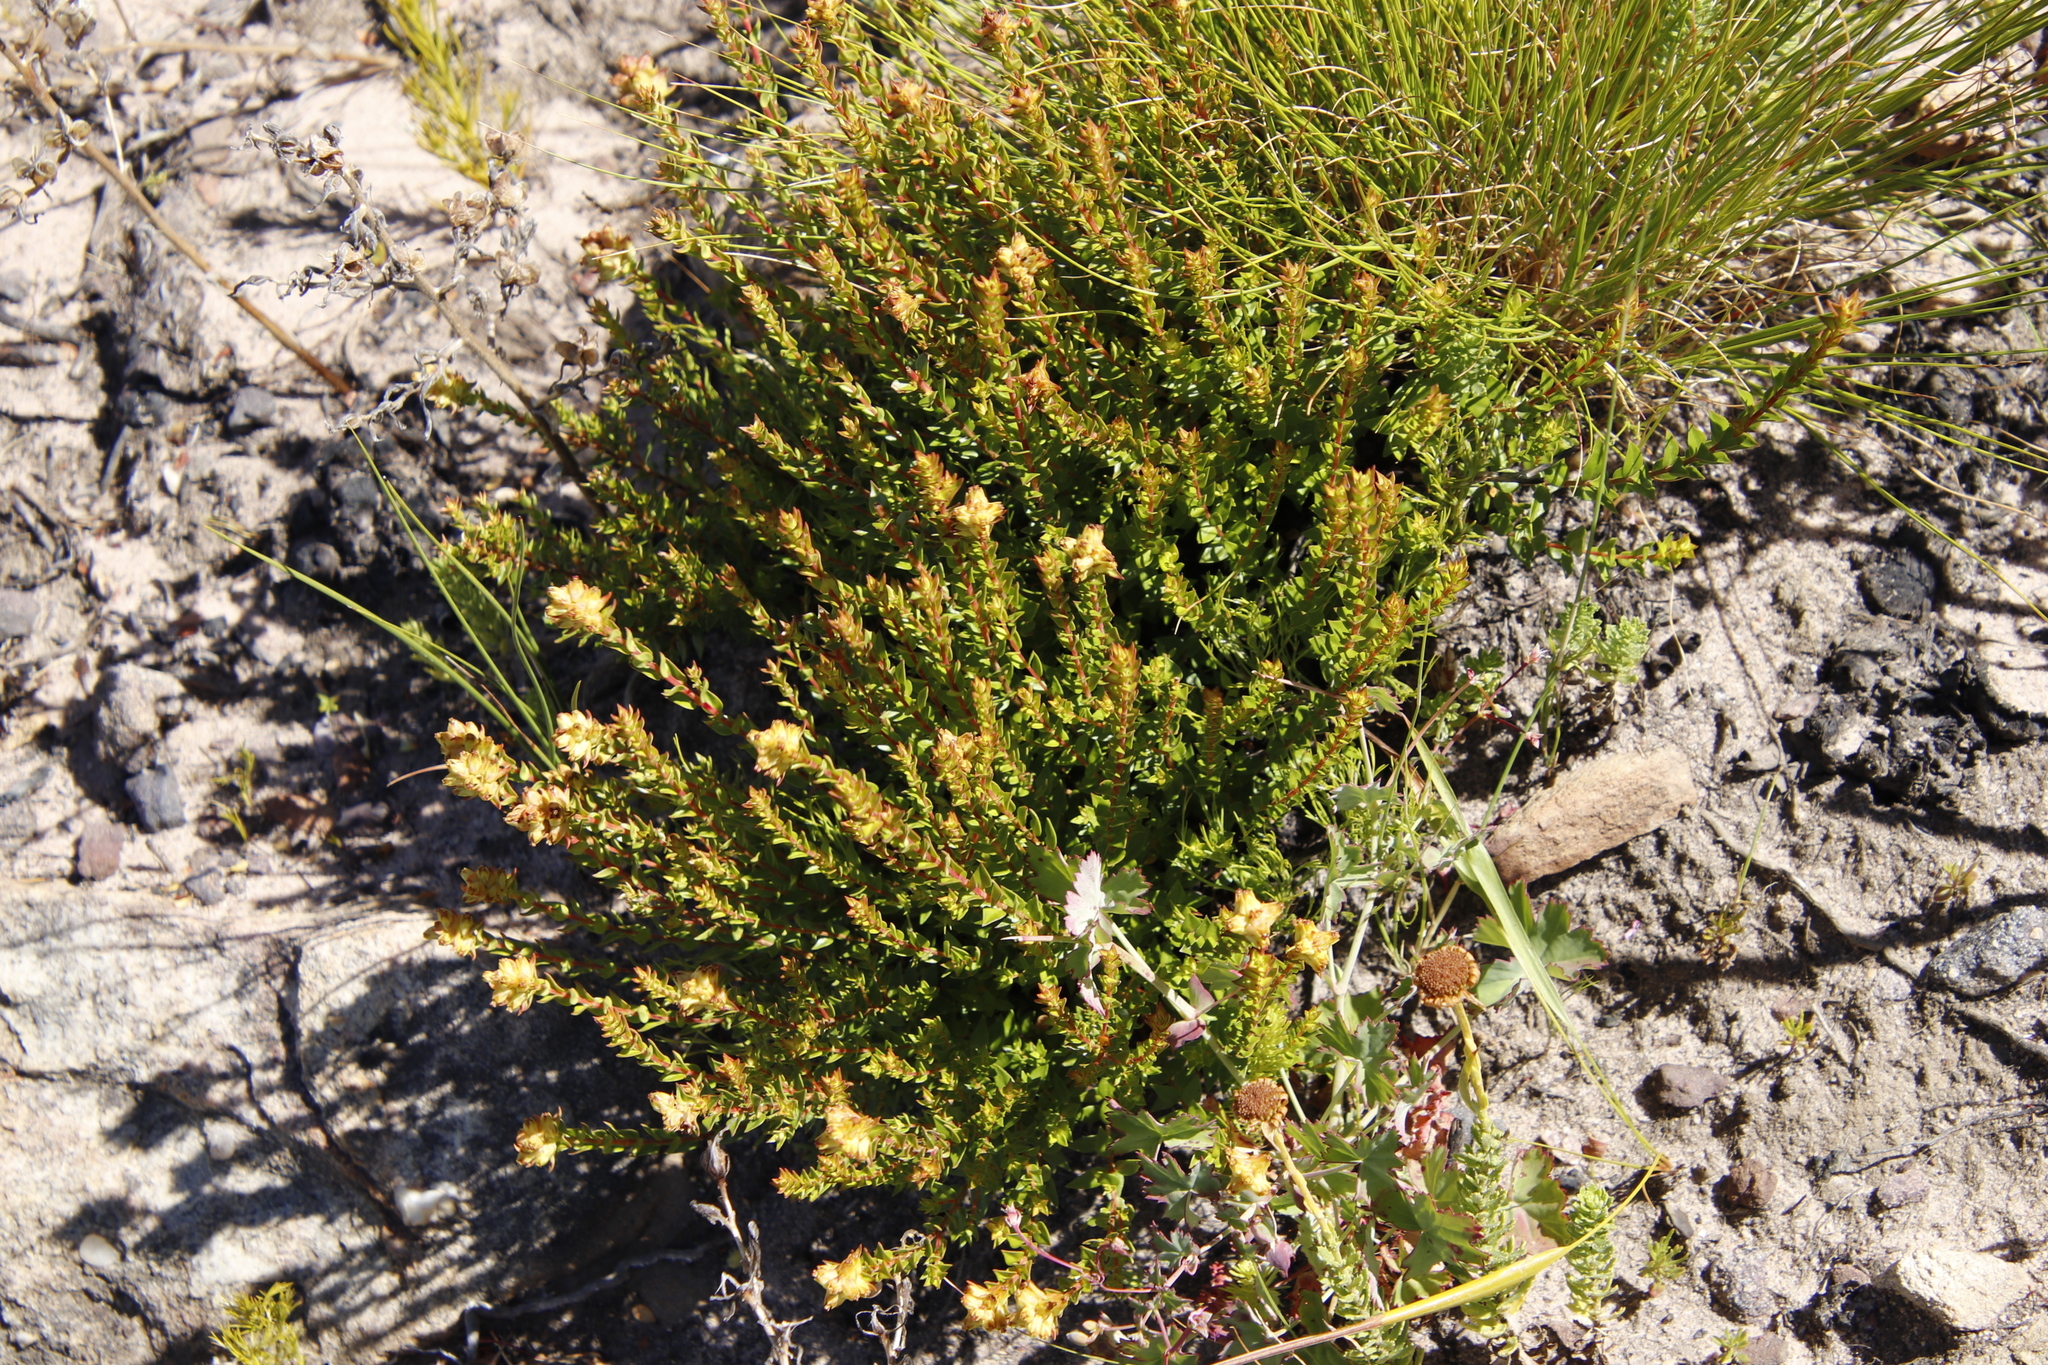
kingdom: Plantae
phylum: Tracheophyta
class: Magnoliopsida
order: Myrtales
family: Penaeaceae
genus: Penaea
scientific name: Penaea mucronata
